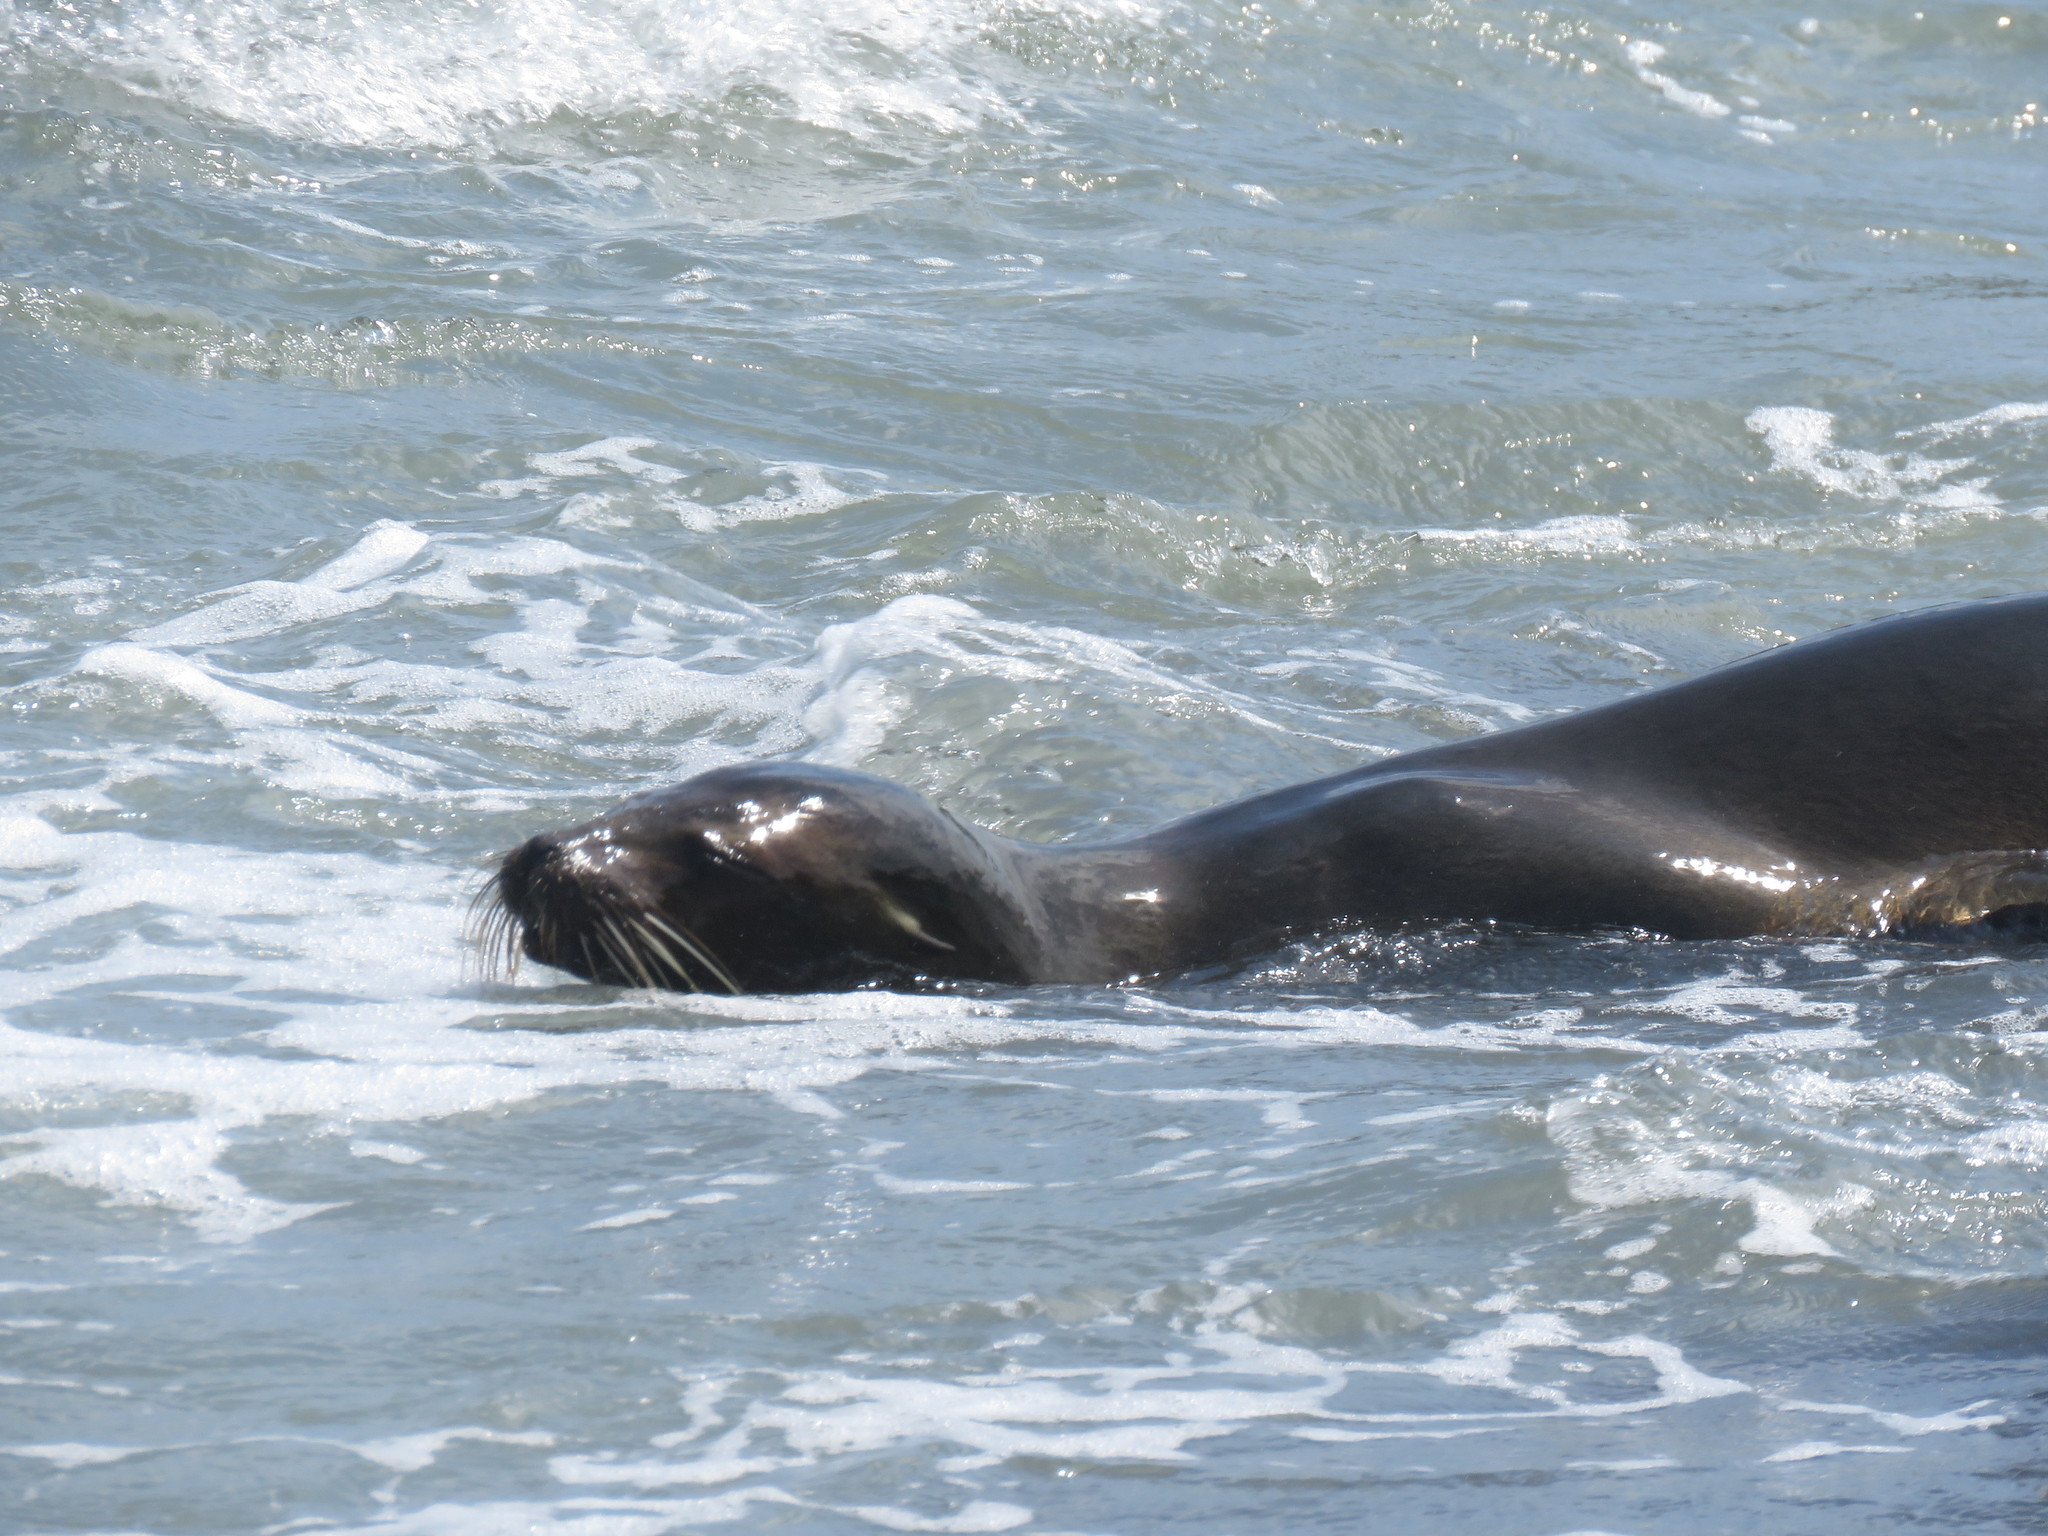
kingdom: Animalia
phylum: Chordata
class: Mammalia
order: Carnivora
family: Otariidae
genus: Zalophus
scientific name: Zalophus wollebaeki
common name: Galapagos sea lion
